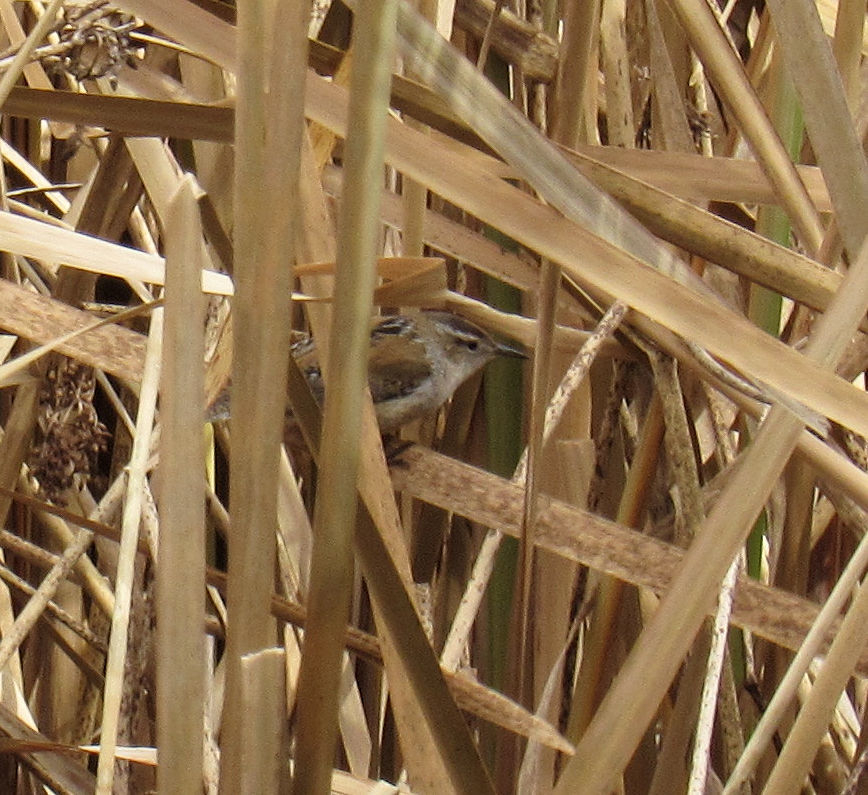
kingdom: Animalia
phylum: Chordata
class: Aves
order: Passeriformes
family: Troglodytidae
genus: Cistothorus
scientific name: Cistothorus palustris
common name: Marsh wren
